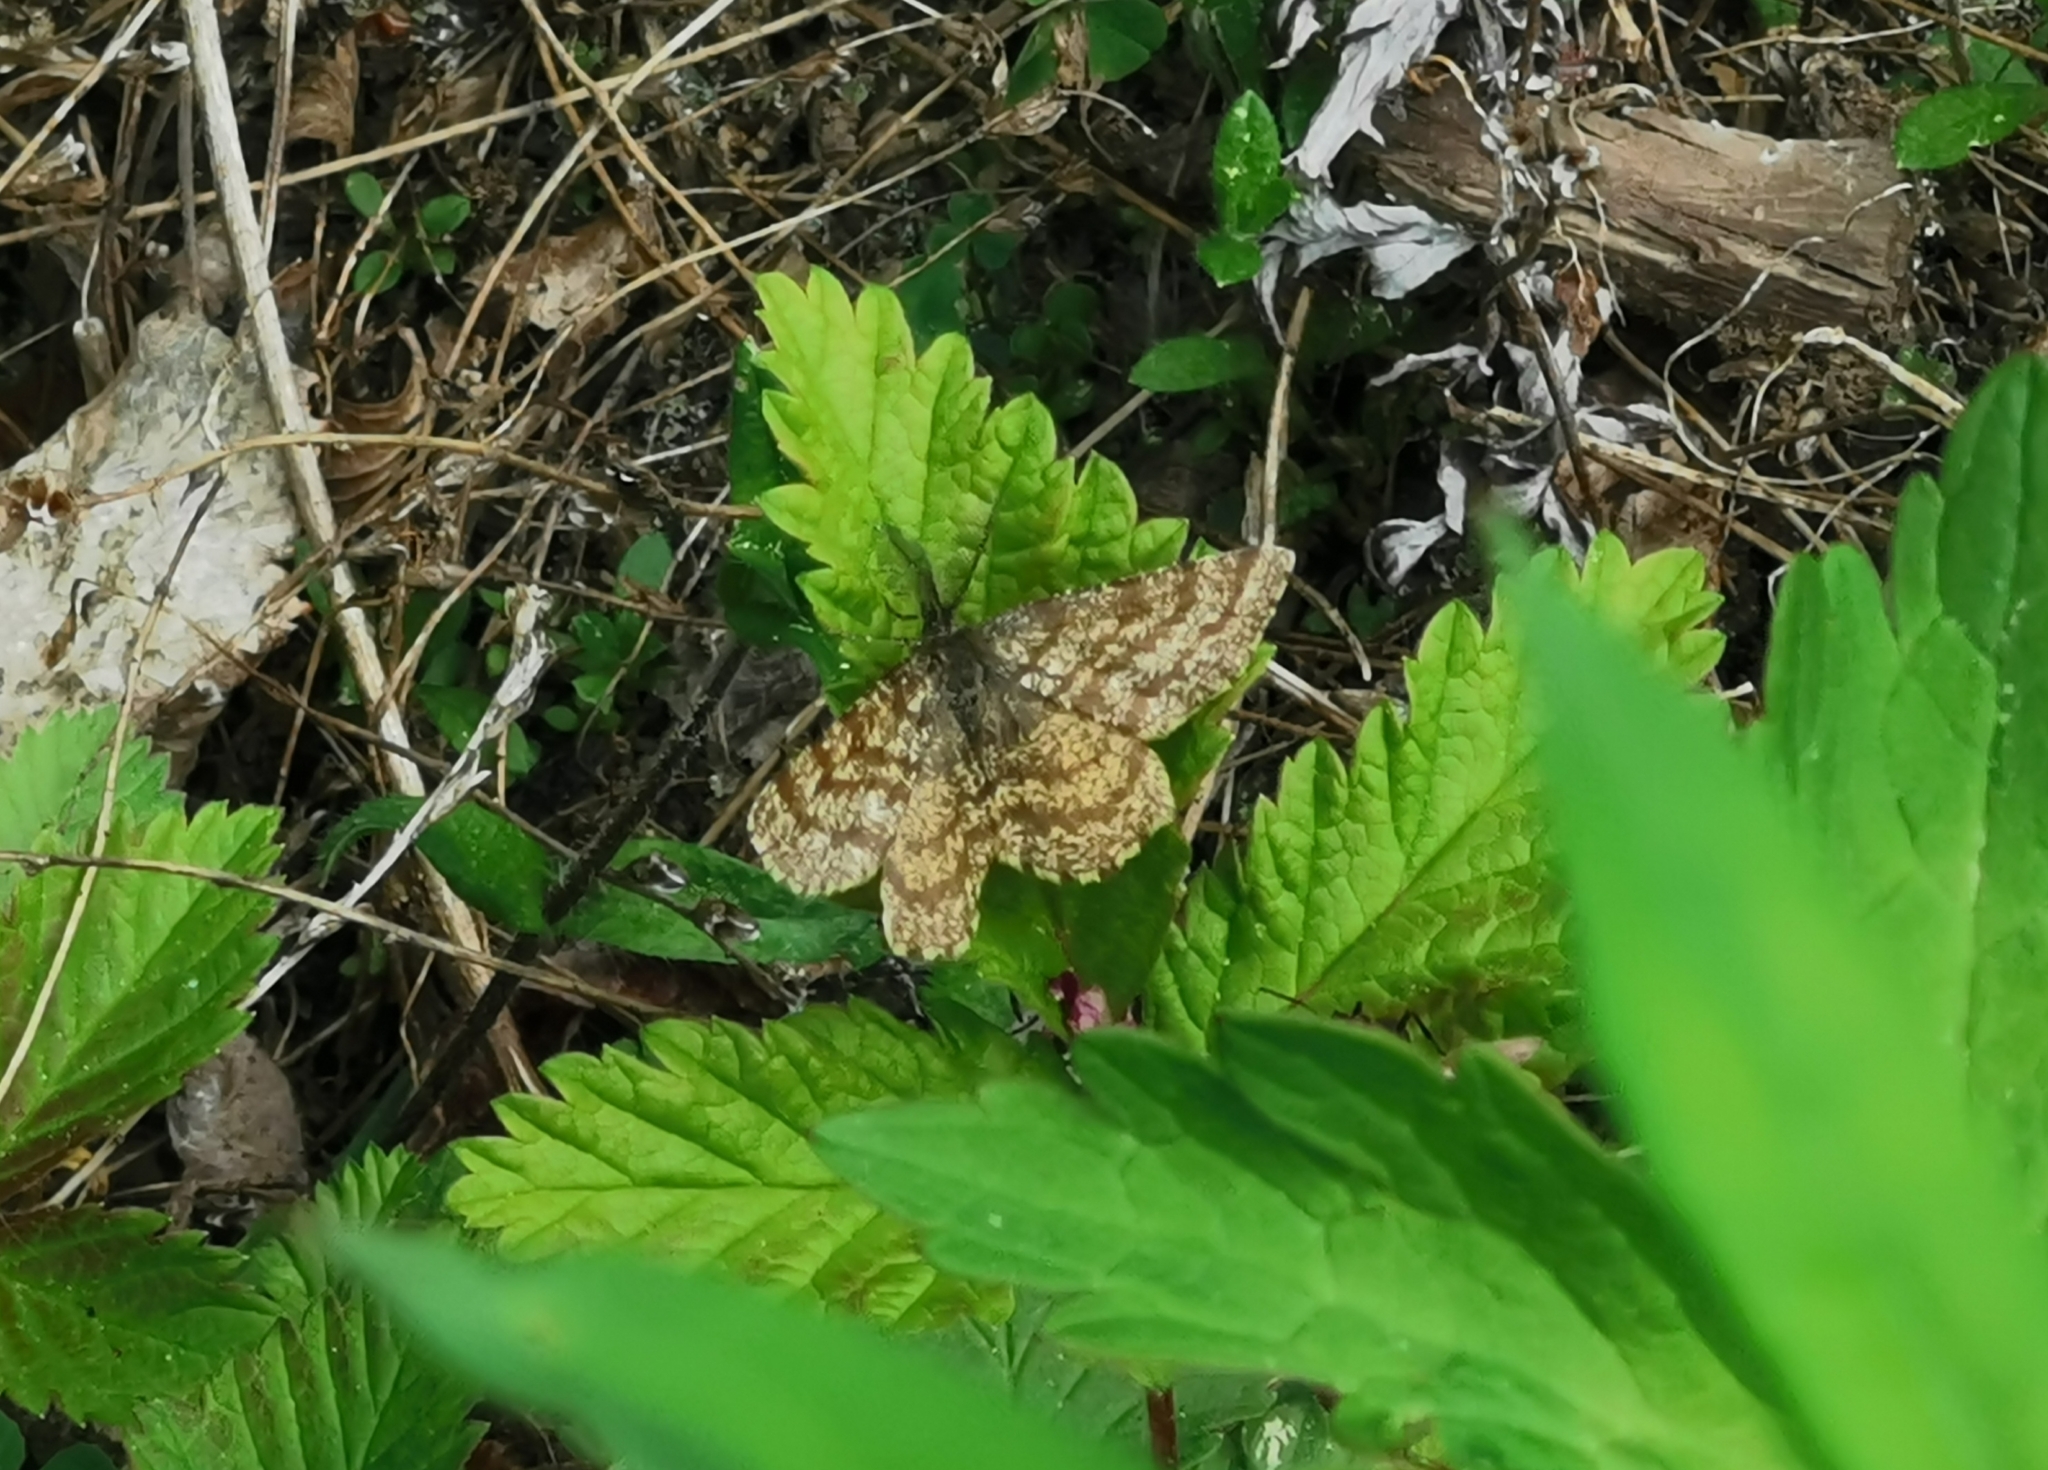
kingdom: Animalia
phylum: Arthropoda
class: Insecta
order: Lepidoptera
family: Geometridae
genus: Ematurga
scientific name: Ematurga atomaria
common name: Common heath
